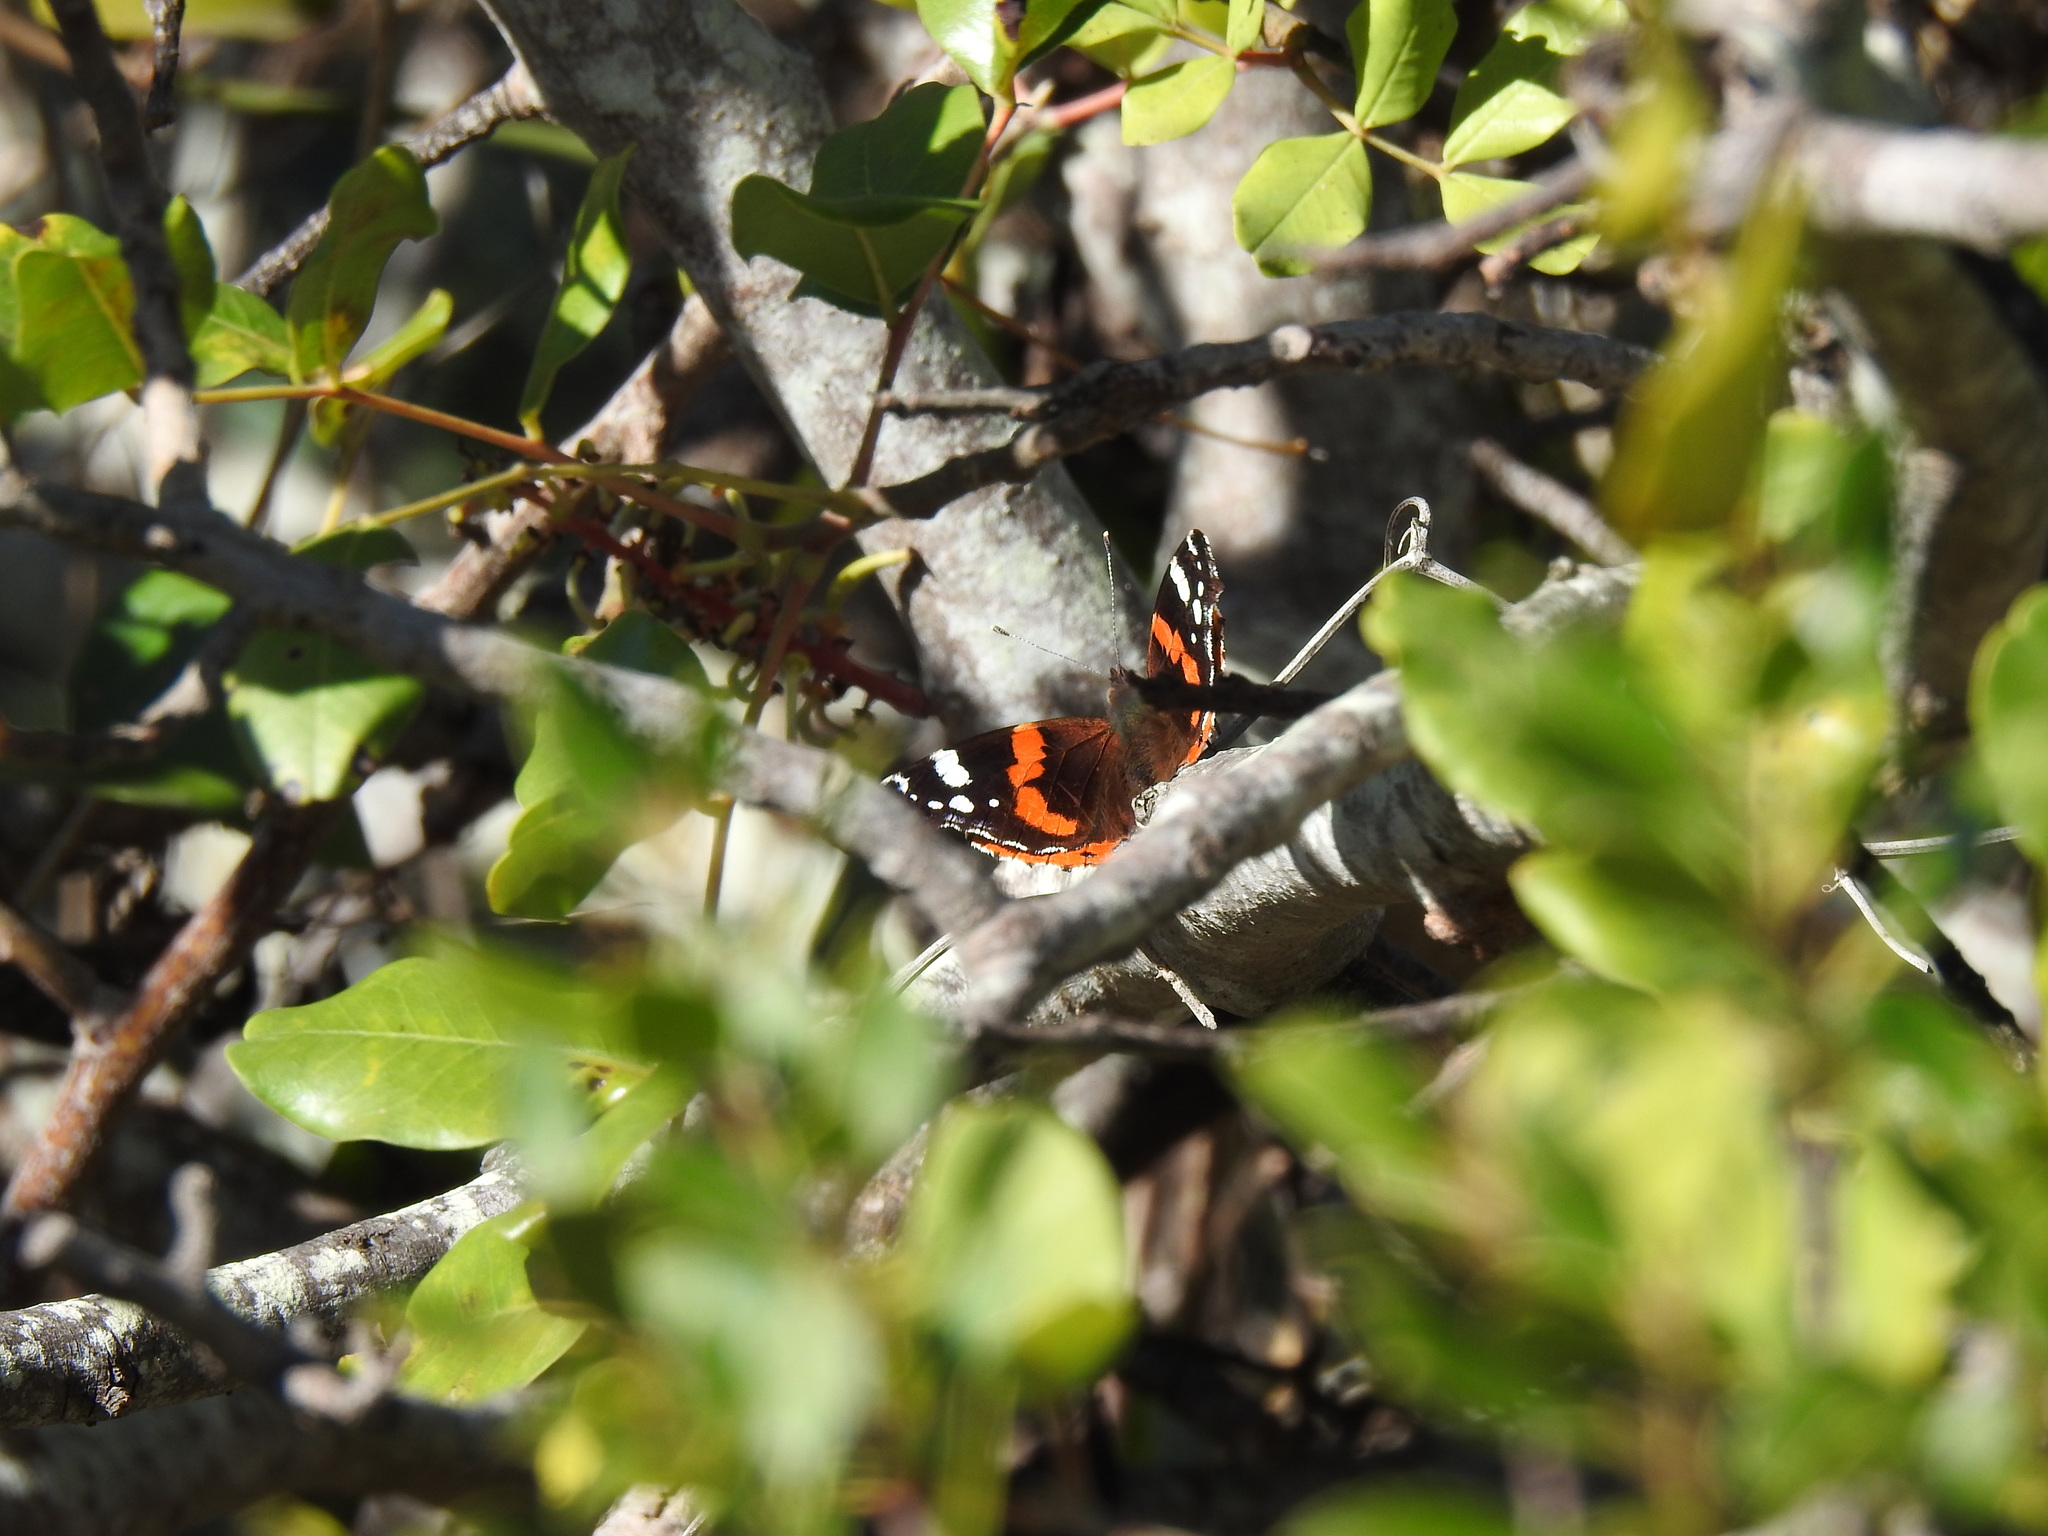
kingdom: Animalia
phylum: Arthropoda
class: Insecta
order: Lepidoptera
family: Nymphalidae
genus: Vanessa
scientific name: Vanessa atalanta
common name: Red admiral
